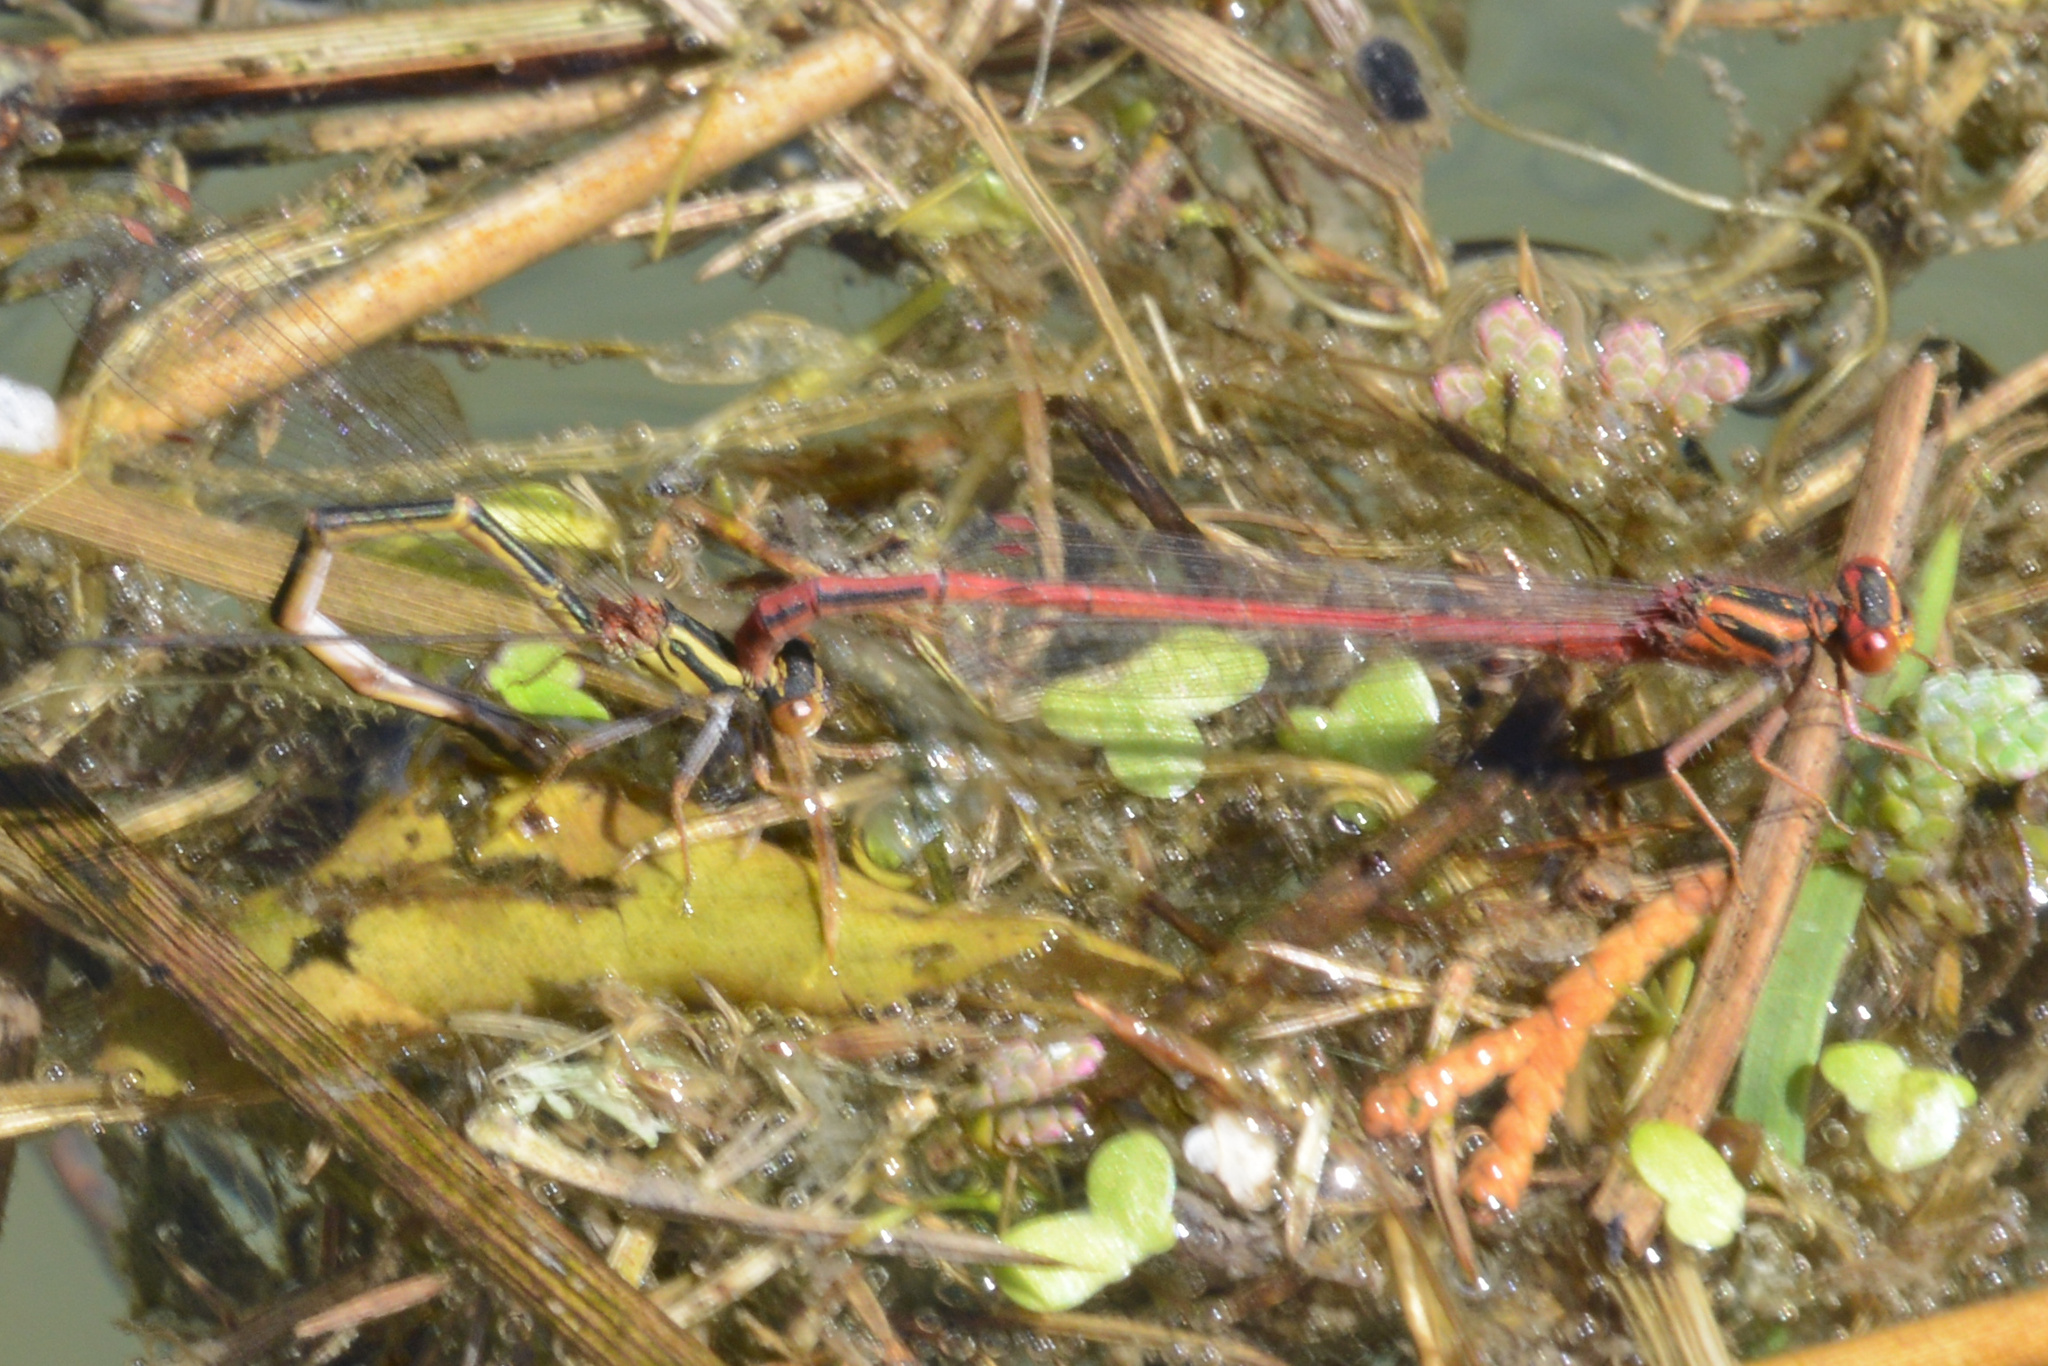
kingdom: Animalia
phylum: Arthropoda
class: Insecta
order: Odonata
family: Coenagrionidae
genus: Xanthocnemis
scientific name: Xanthocnemis zealandica
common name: Common redcoat damselfly
